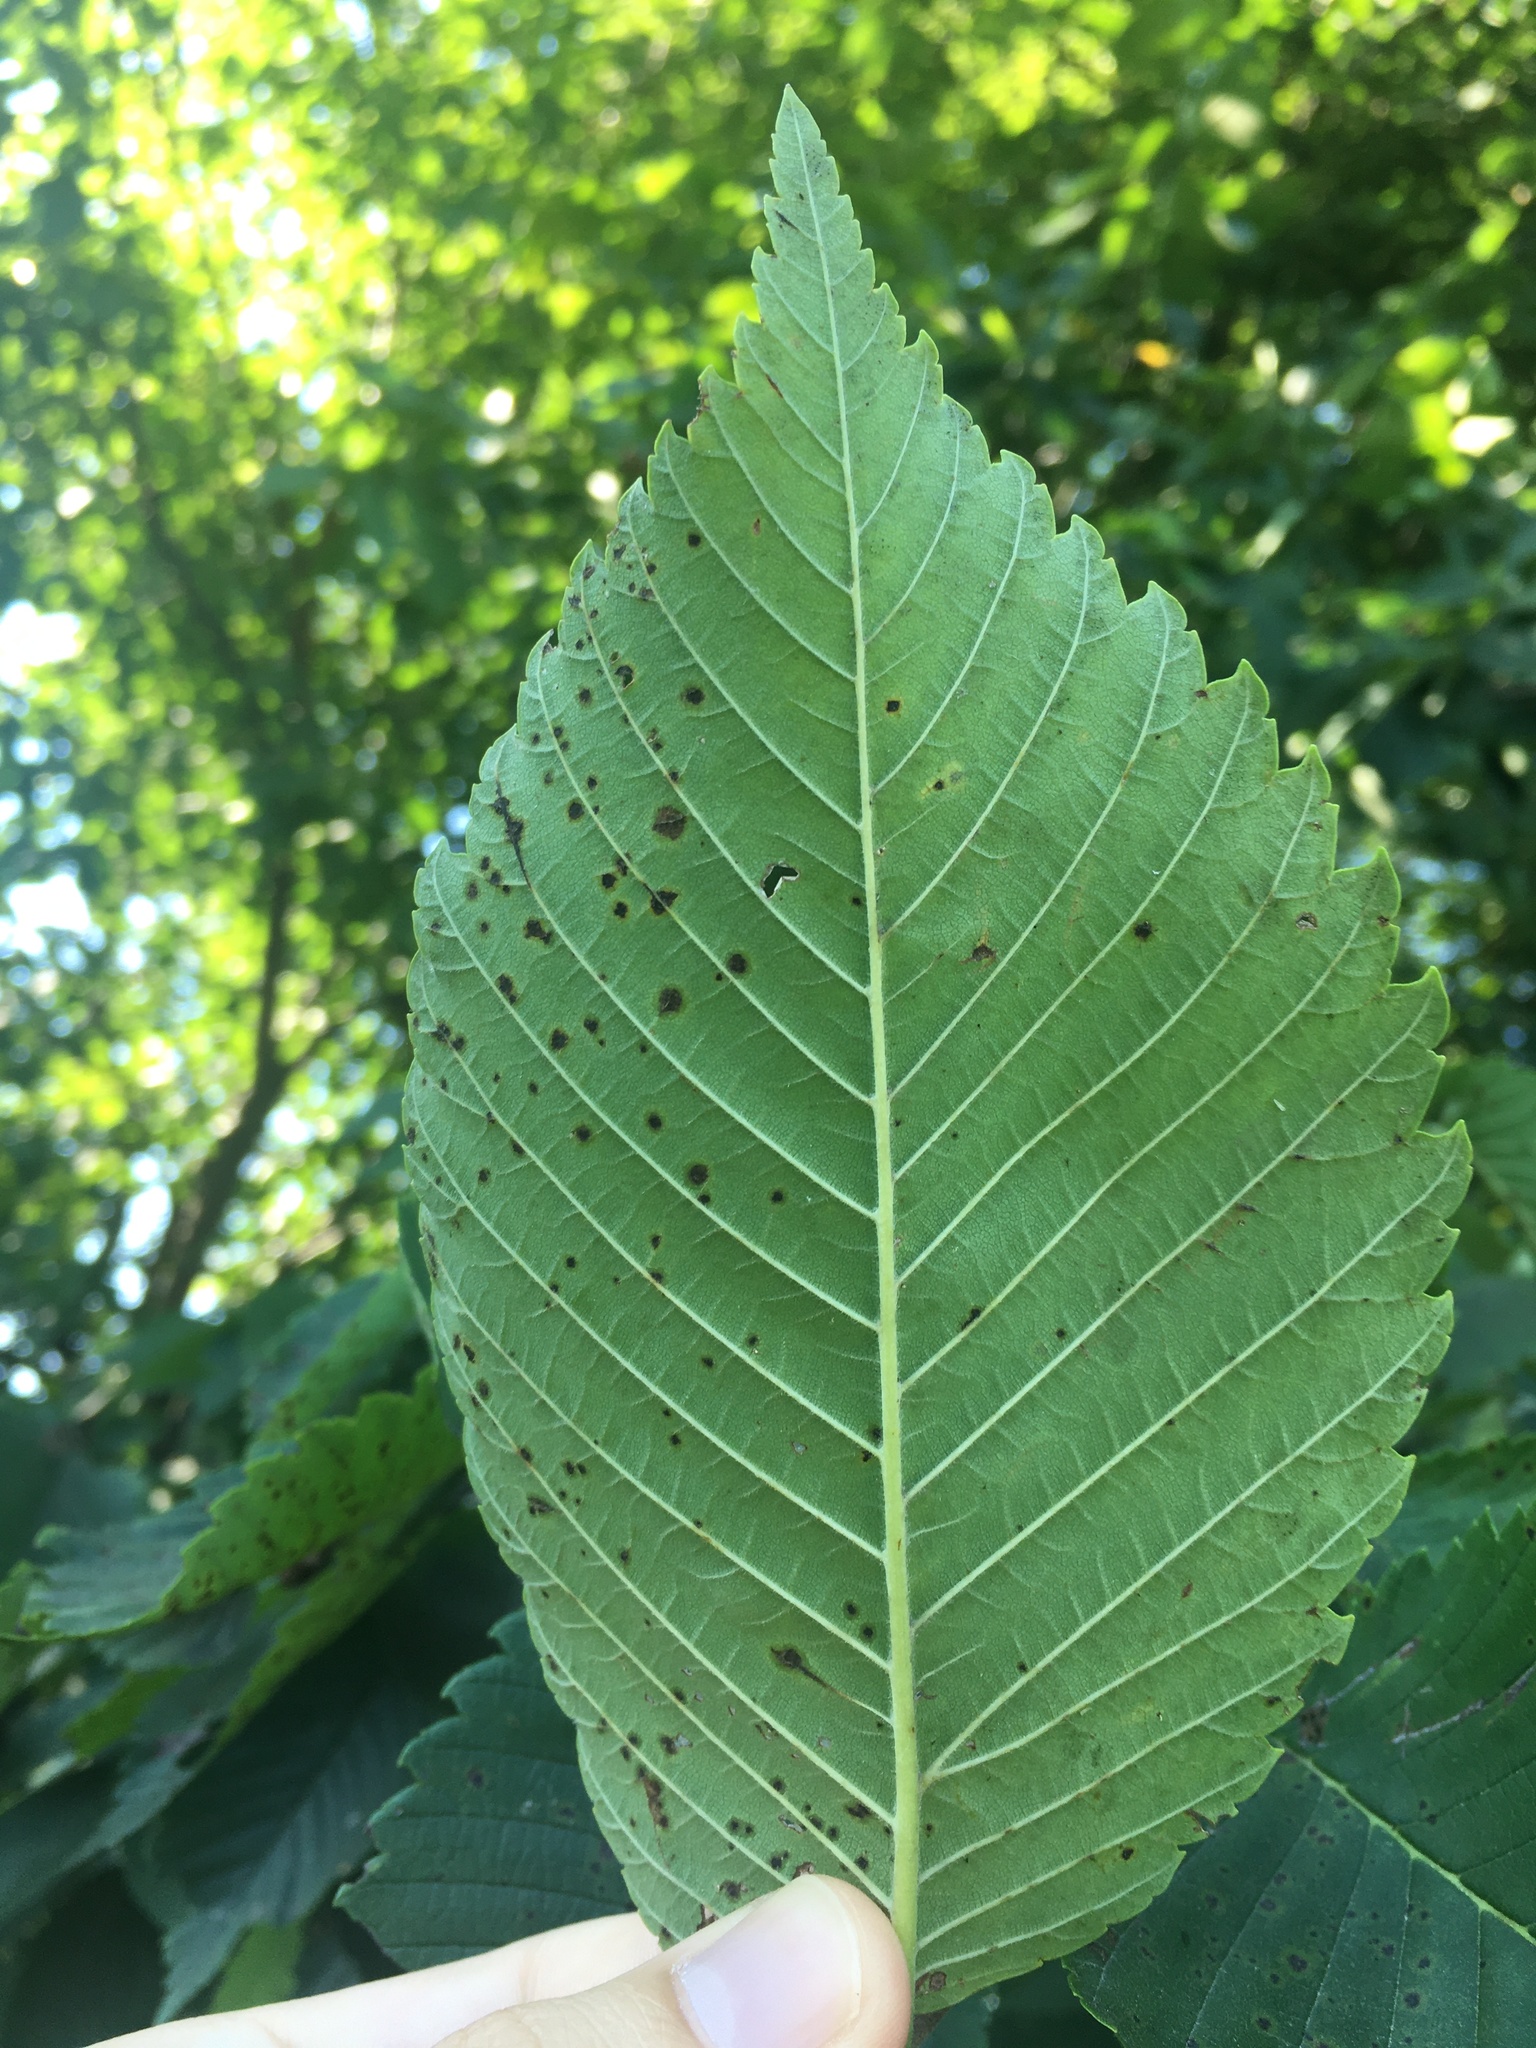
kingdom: Plantae
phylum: Tracheophyta
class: Magnoliopsida
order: Rosales
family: Ulmaceae
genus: Ulmus
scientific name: Ulmus americana
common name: American elm
